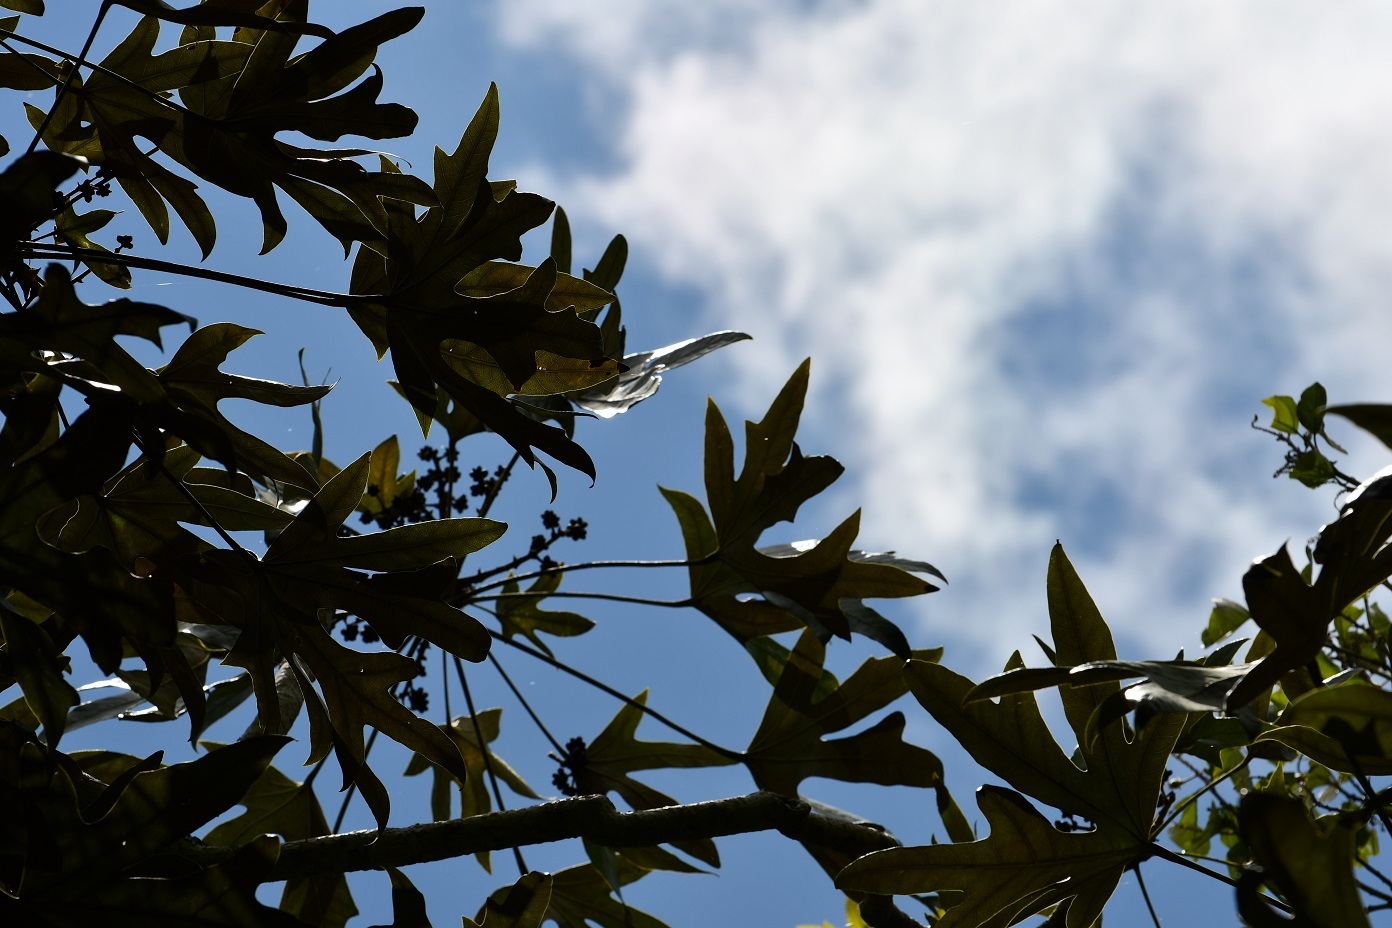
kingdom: Plantae
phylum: Tracheophyta
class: Magnoliopsida
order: Apiales
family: Araliaceae
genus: Oreopanax
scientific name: Oreopanax geminatus
